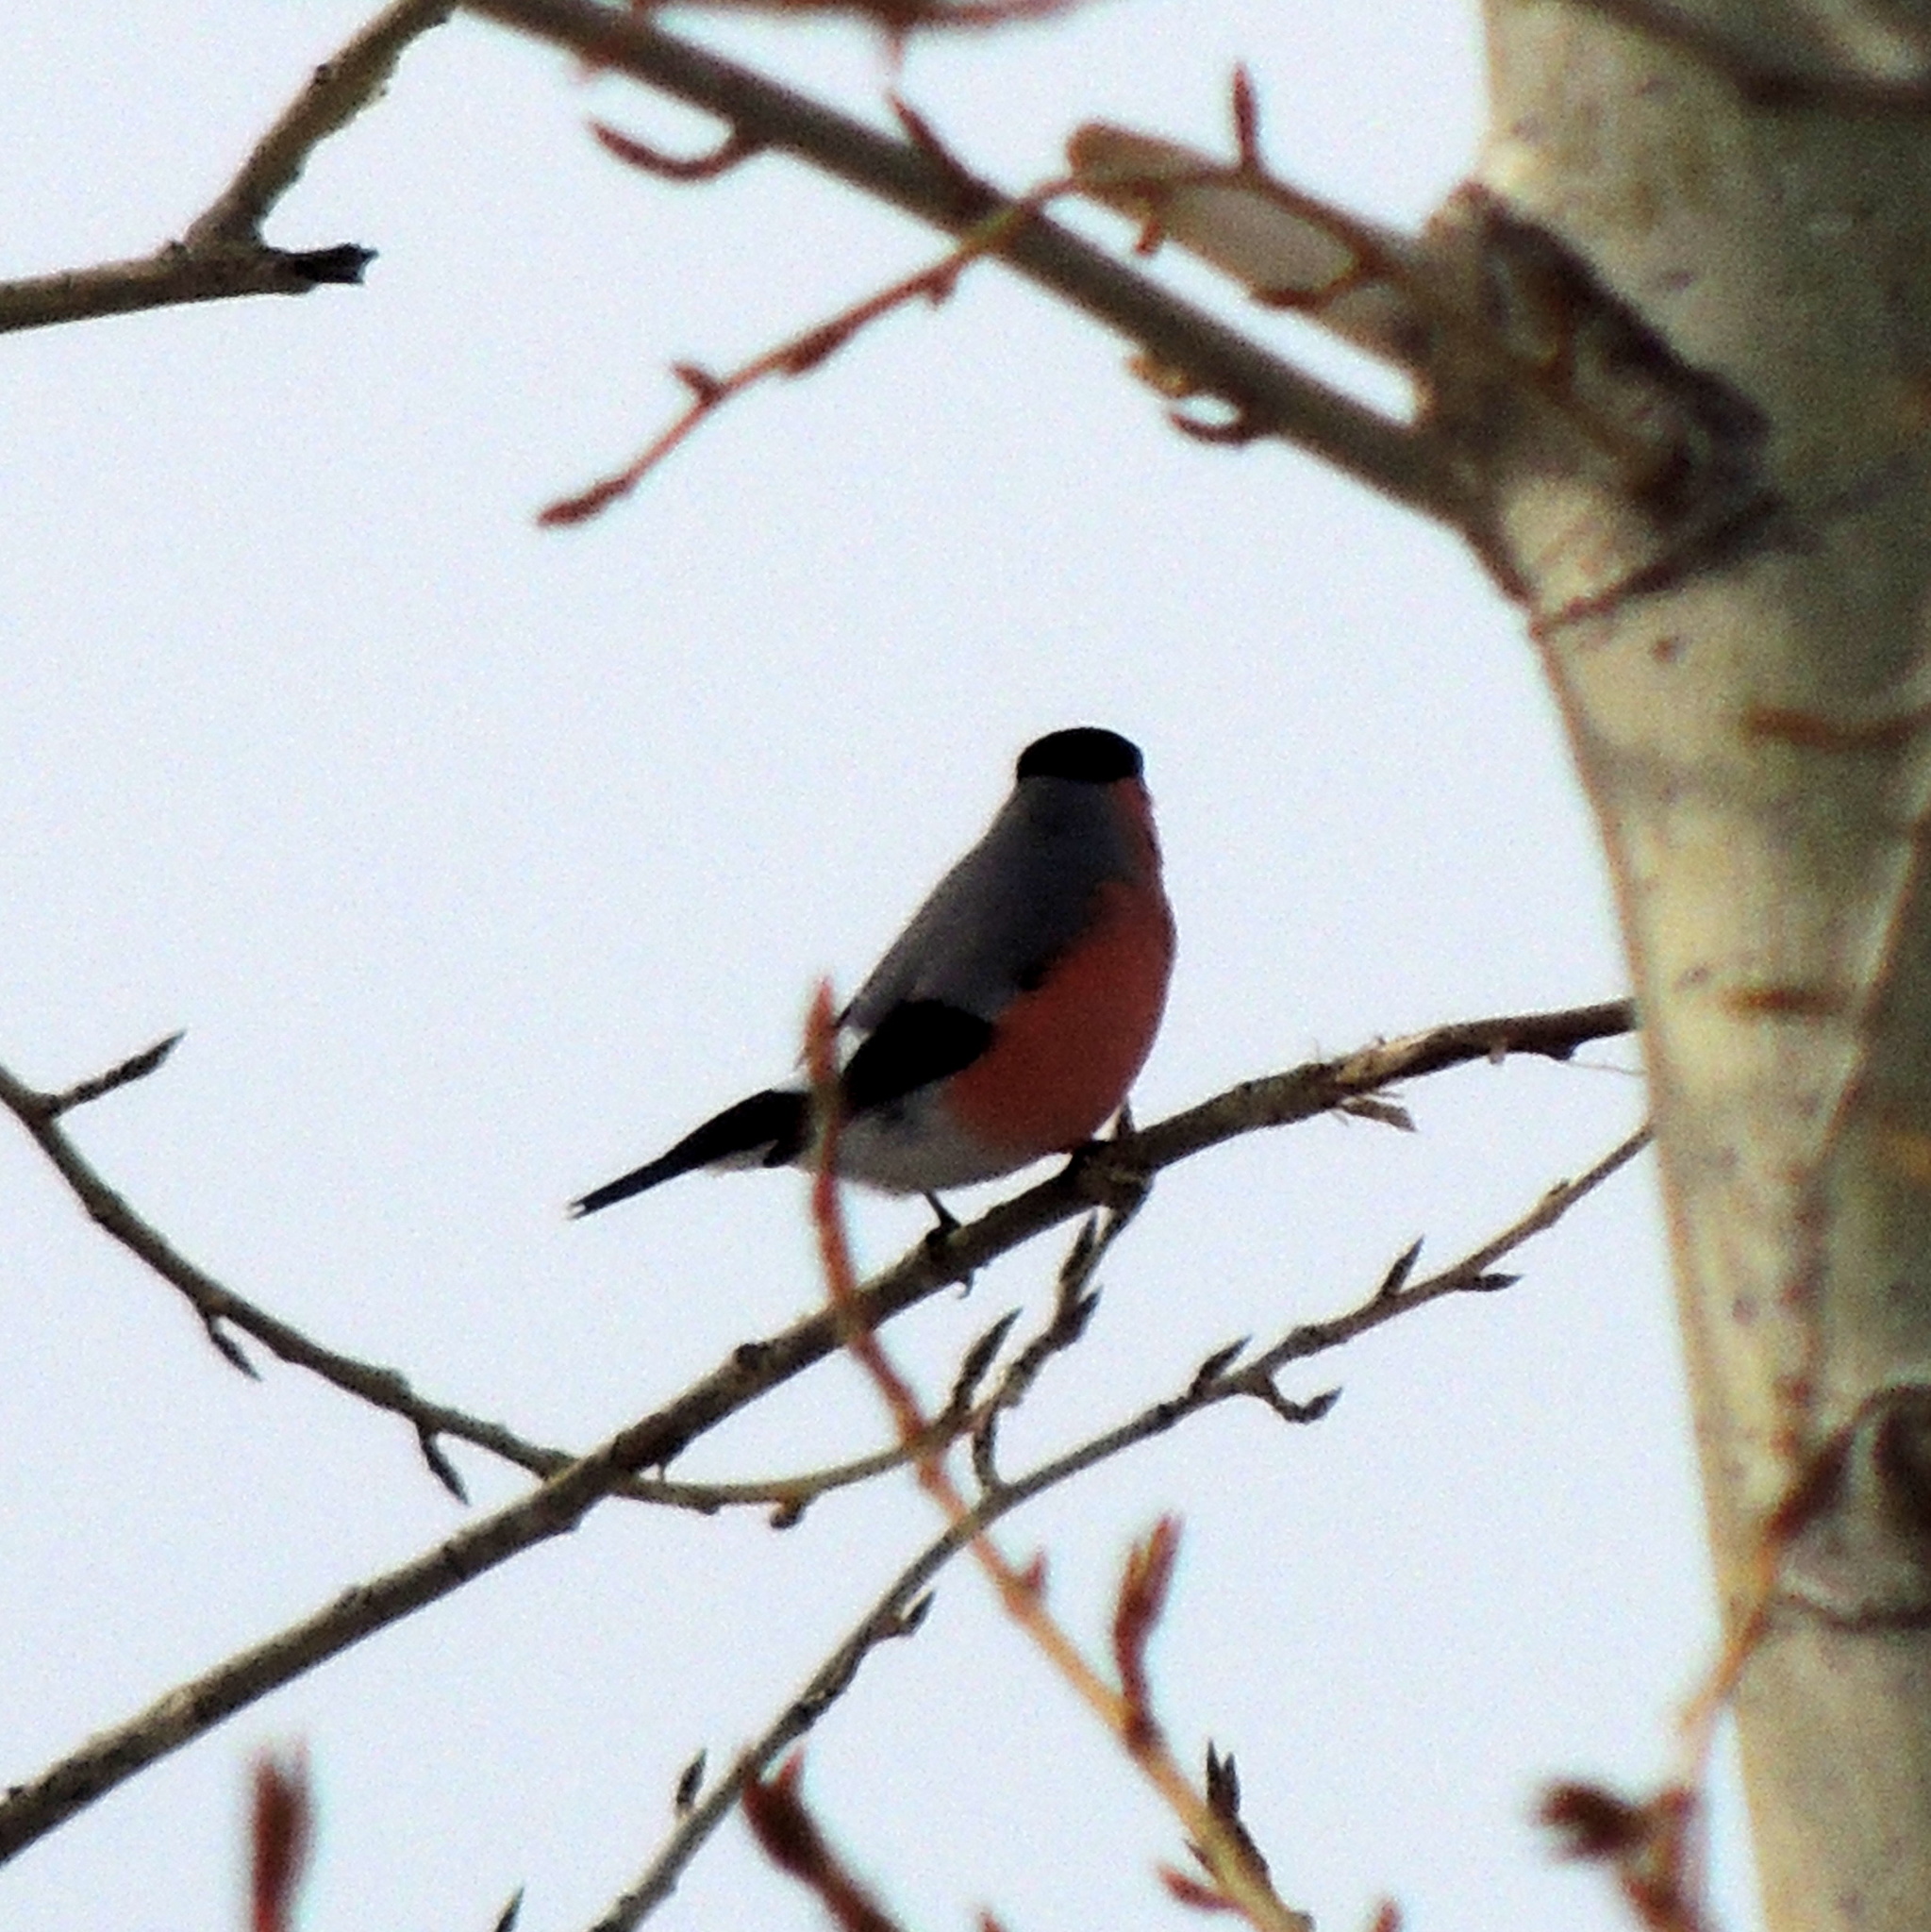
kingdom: Animalia
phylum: Chordata
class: Aves
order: Passeriformes
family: Fringillidae
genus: Pyrrhula
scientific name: Pyrrhula pyrrhula
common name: Eurasian bullfinch
